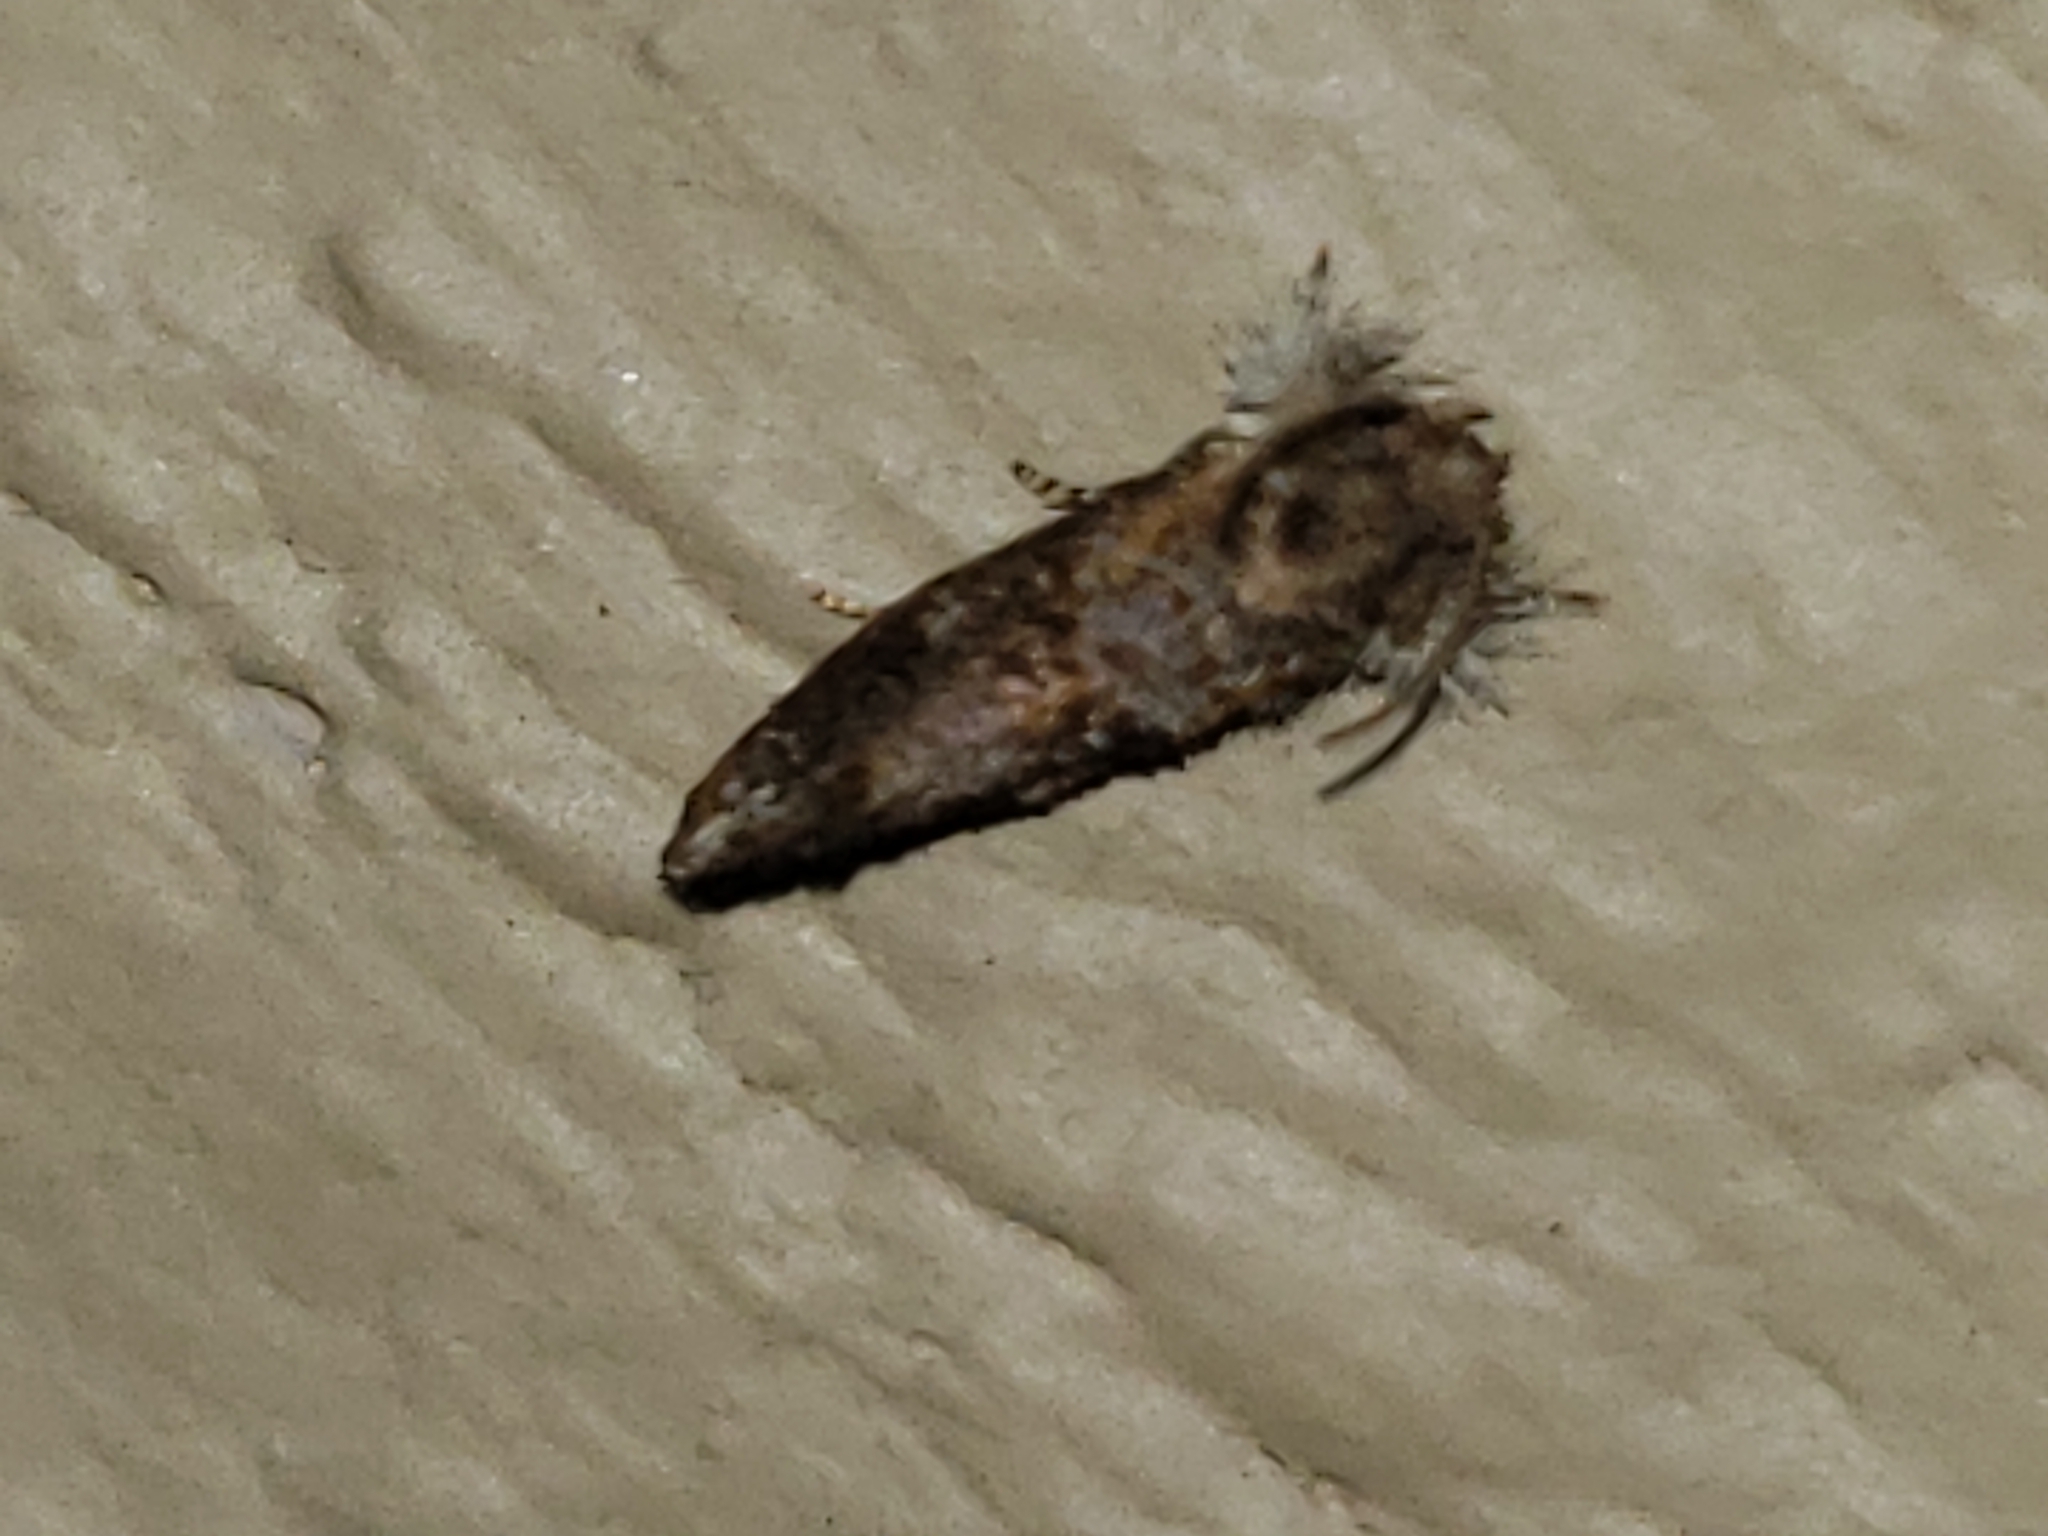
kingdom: Animalia
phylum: Arthropoda
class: Insecta
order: Lepidoptera
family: Tineidae
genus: Acrolophus
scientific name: Acrolophus panamae
